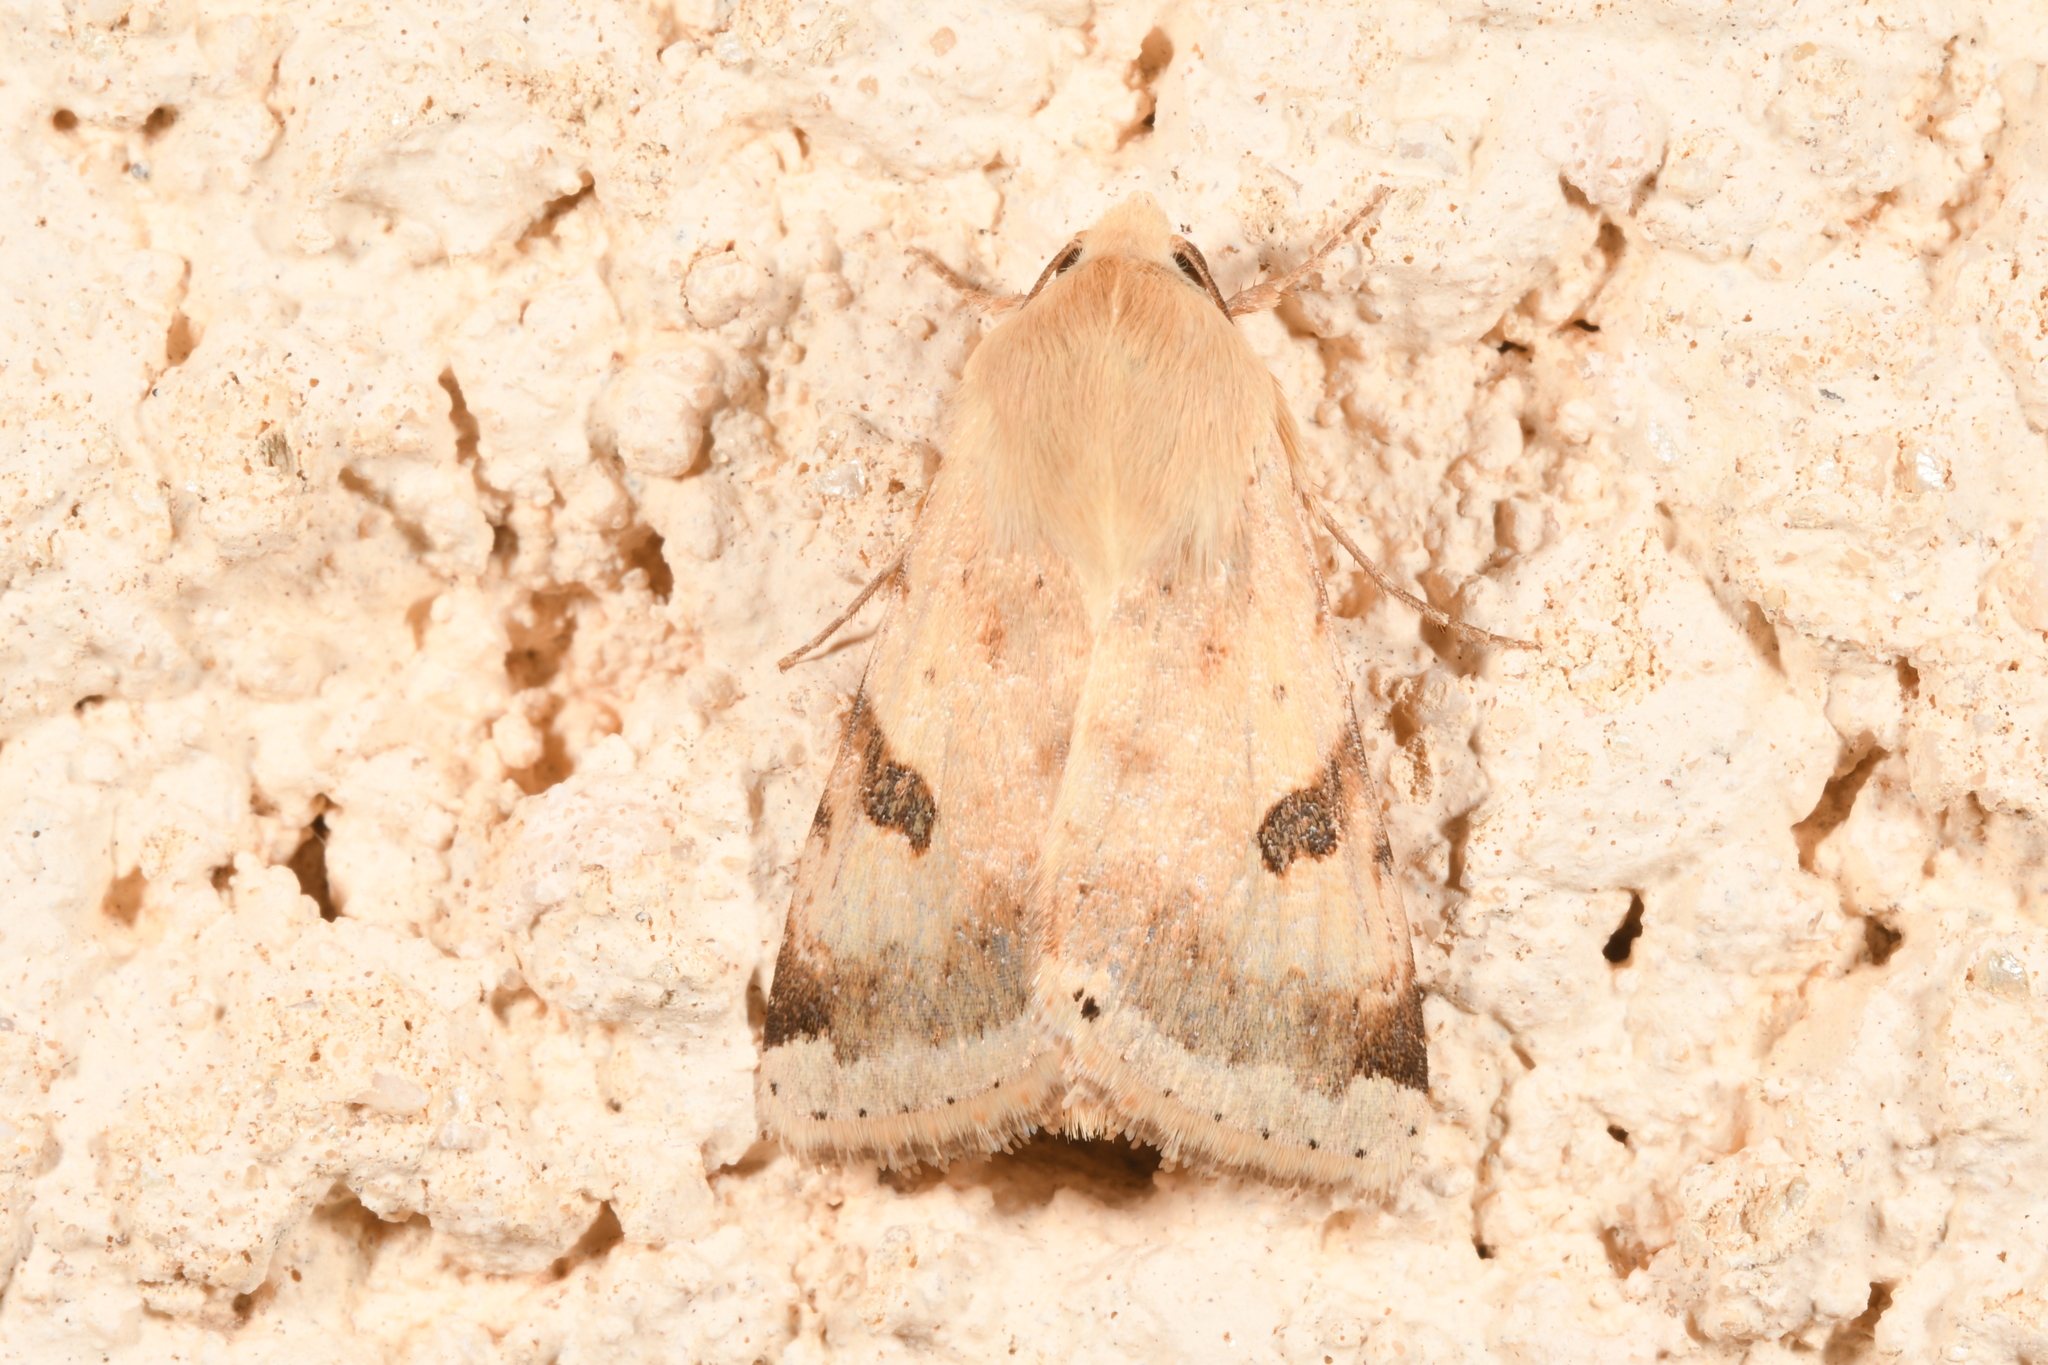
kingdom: Animalia
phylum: Arthropoda
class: Insecta
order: Lepidoptera
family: Noctuidae
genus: Heliothis
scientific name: Heliothis peltigera
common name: Bordered straw
